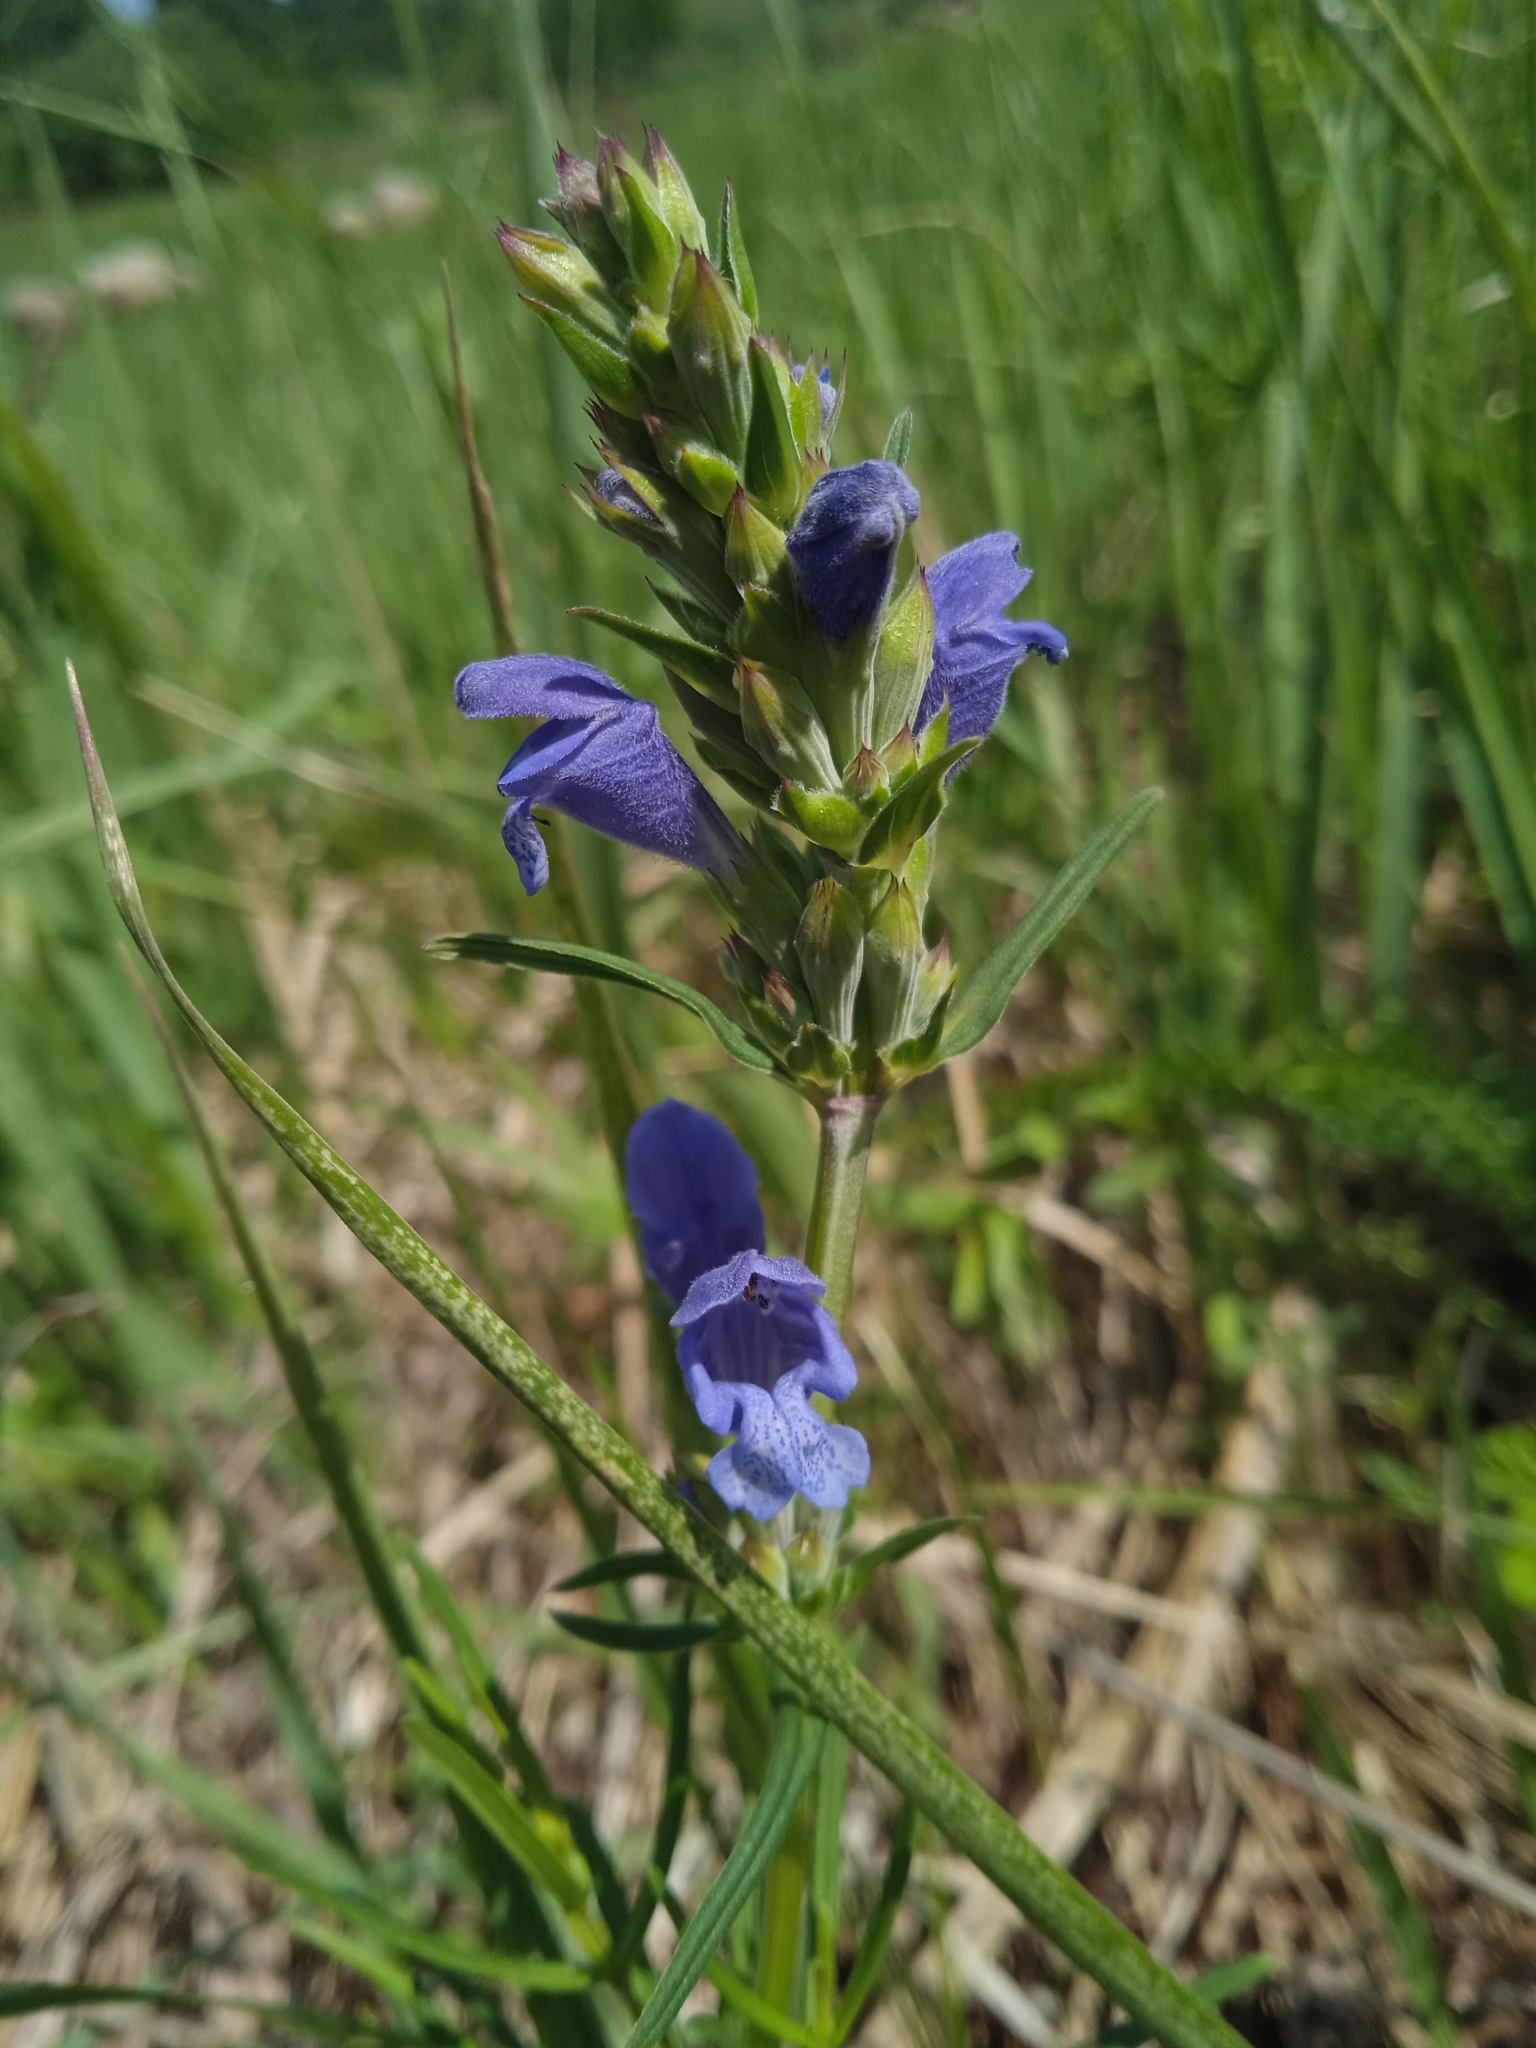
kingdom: Plantae
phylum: Tracheophyta
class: Magnoliopsida
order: Lamiales
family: Lamiaceae
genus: Dracocephalum
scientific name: Dracocephalum ruyschiana
